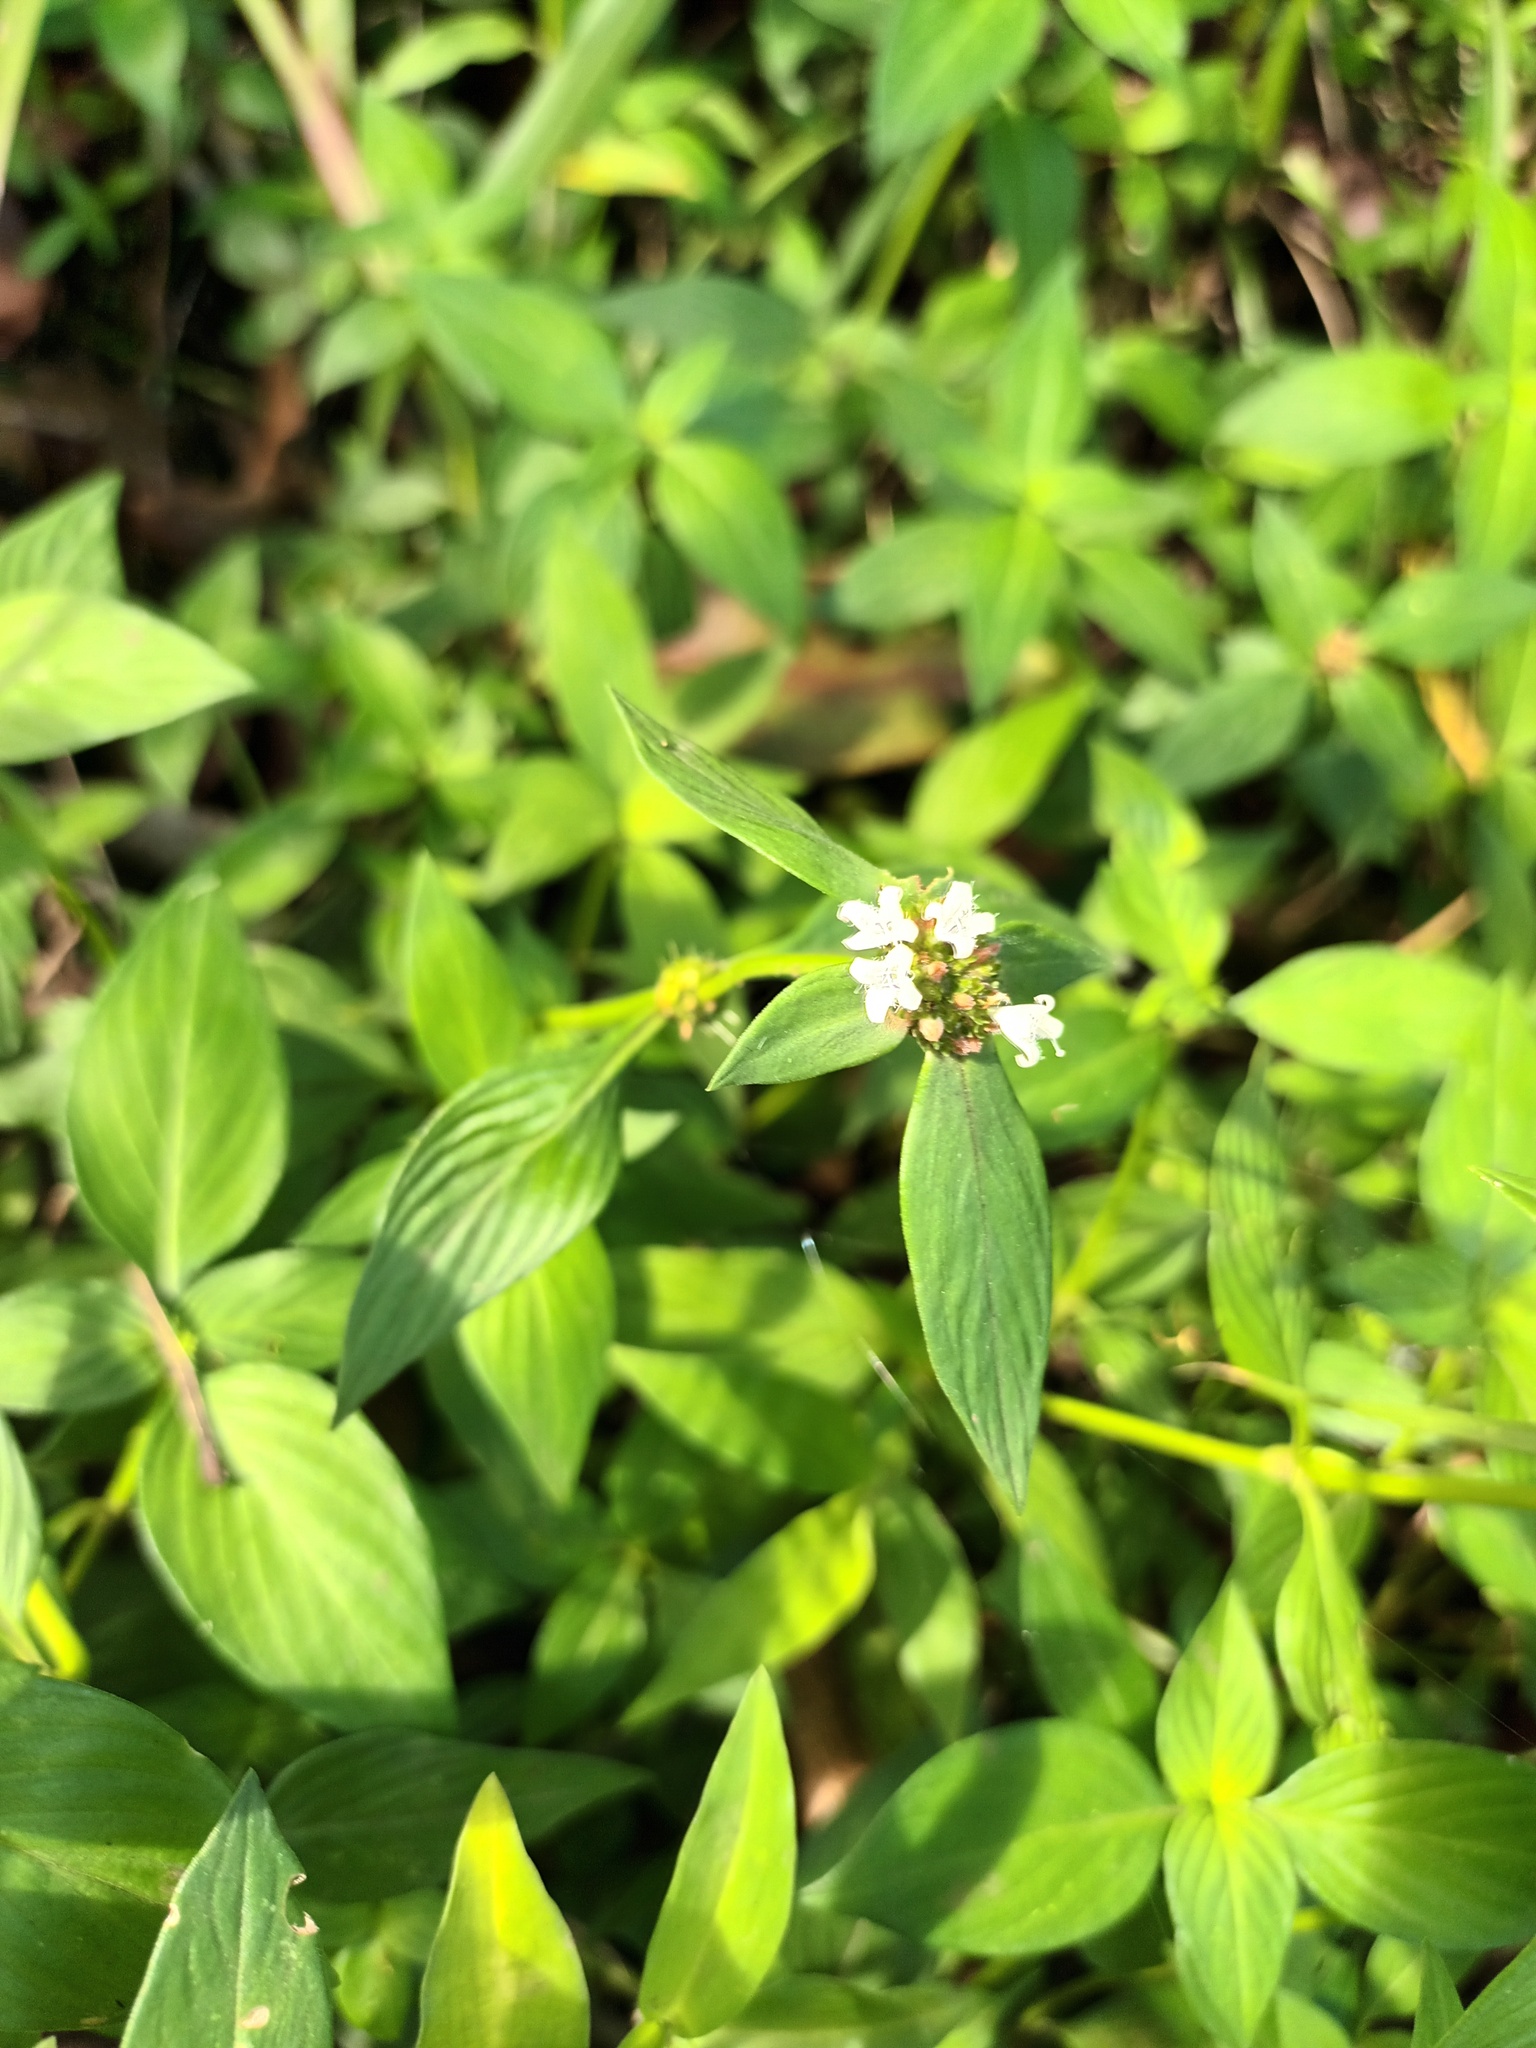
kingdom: Plantae
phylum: Tracheophyta
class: Magnoliopsida
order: Gentianales
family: Rubiaceae
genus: Spermacoce
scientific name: Spermacoce remota
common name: Woodland false buttonweed
